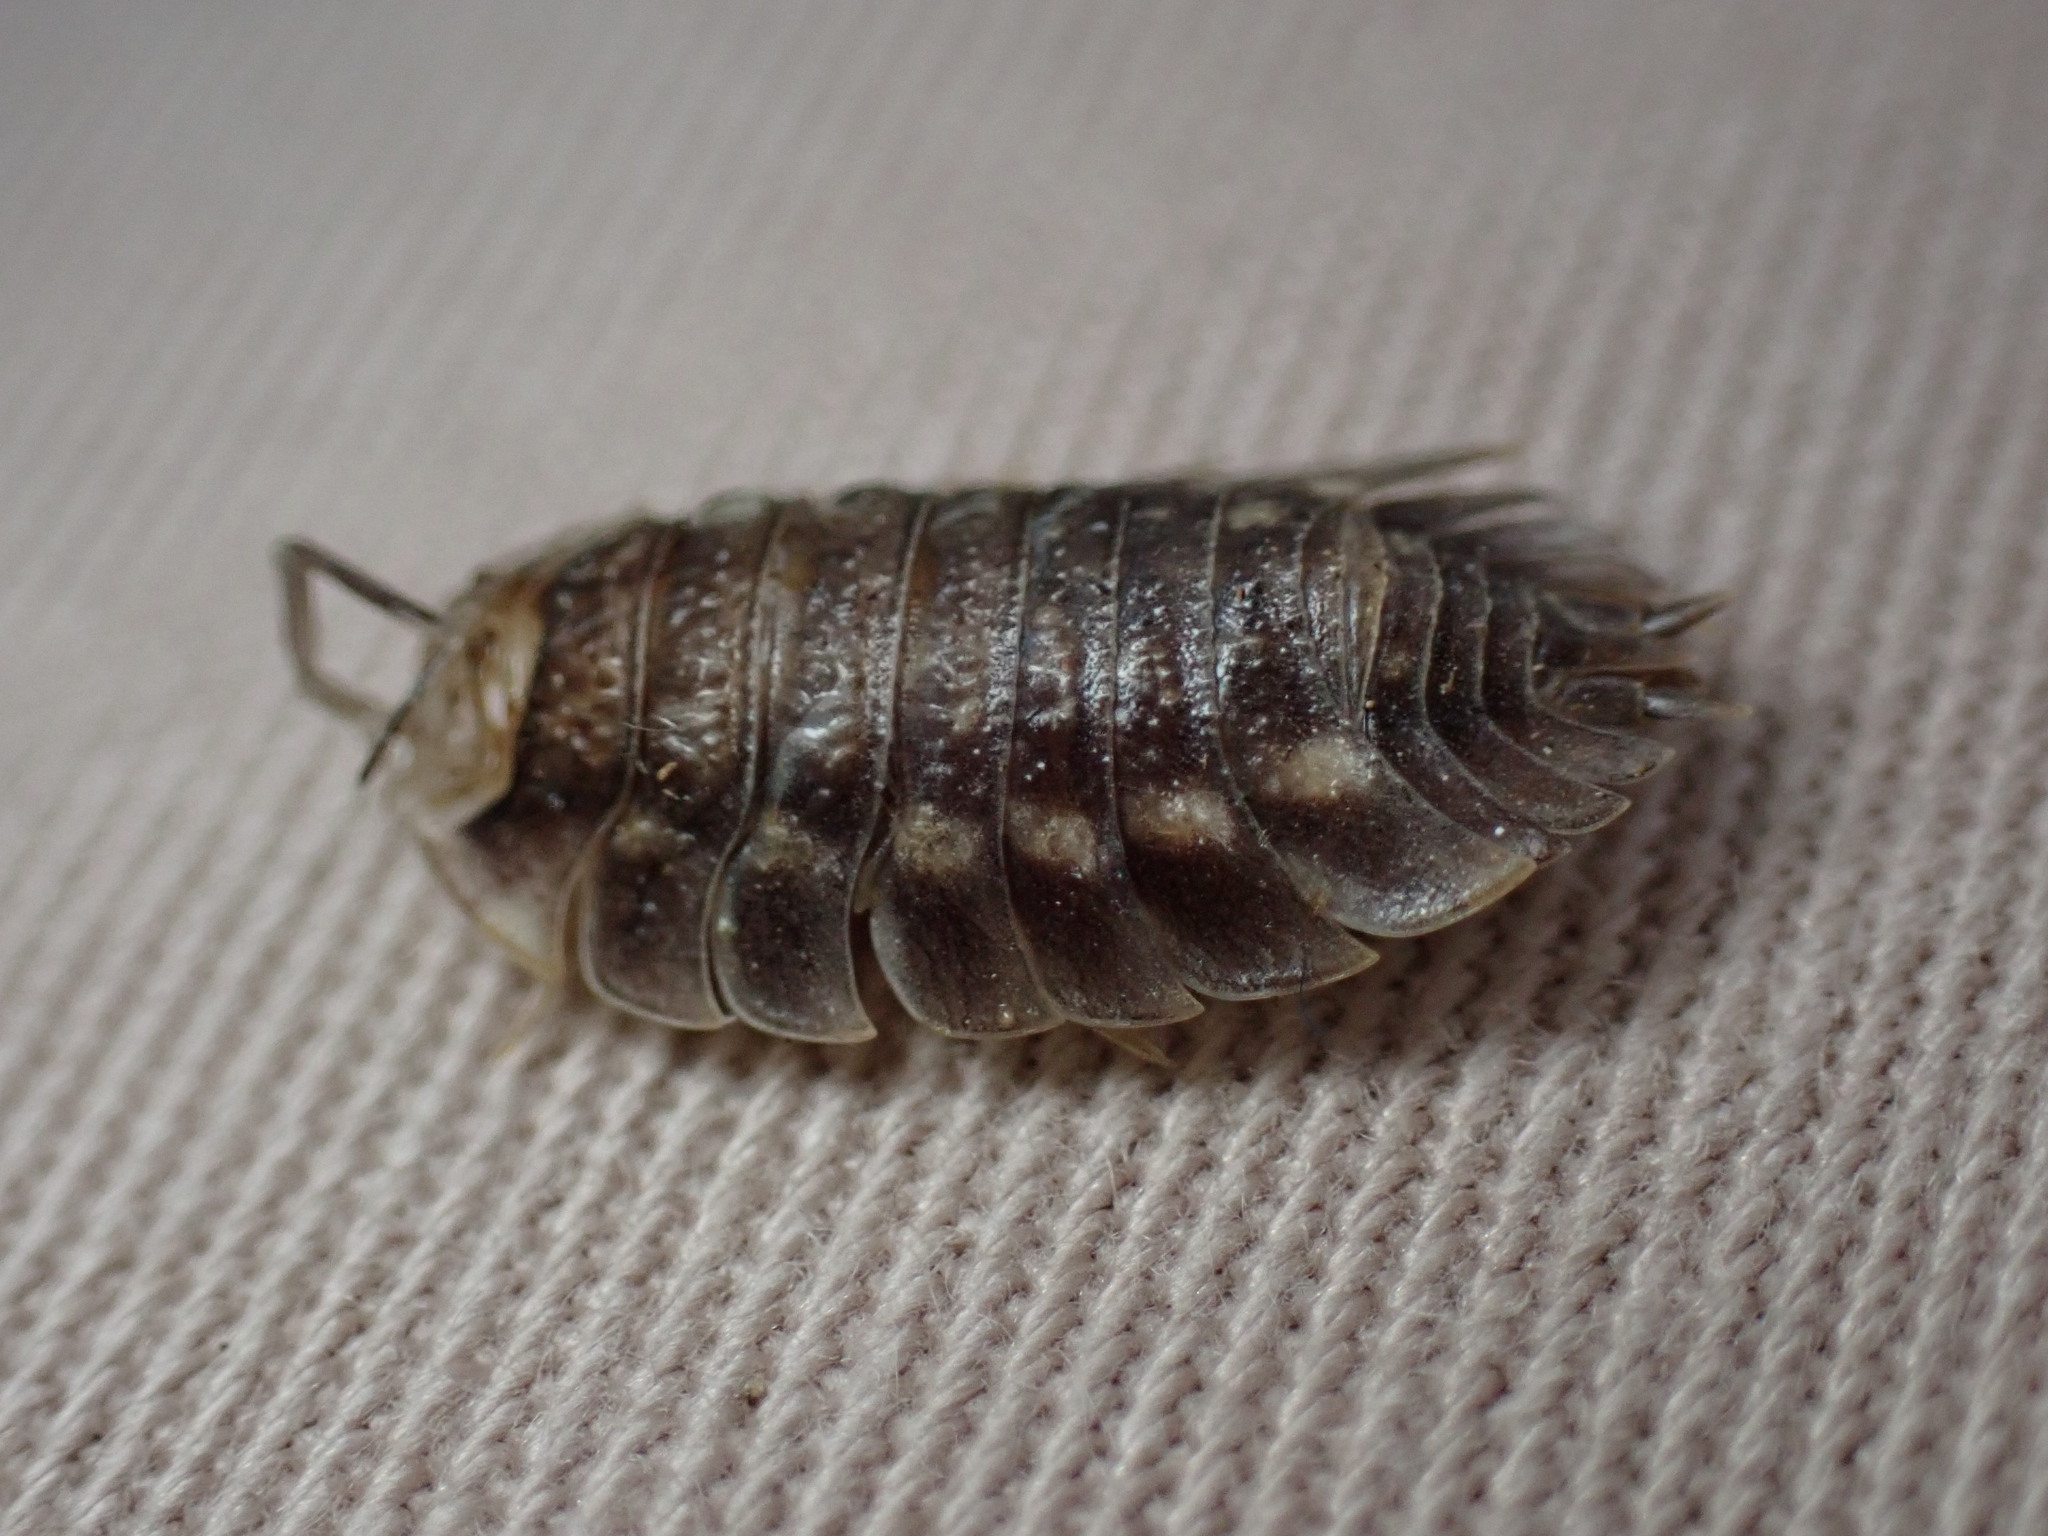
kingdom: Animalia
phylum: Arthropoda
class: Malacostraca
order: Isopoda
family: Oniscidae
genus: Oniscus
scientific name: Oniscus asellus
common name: Common shiny woodlouse
